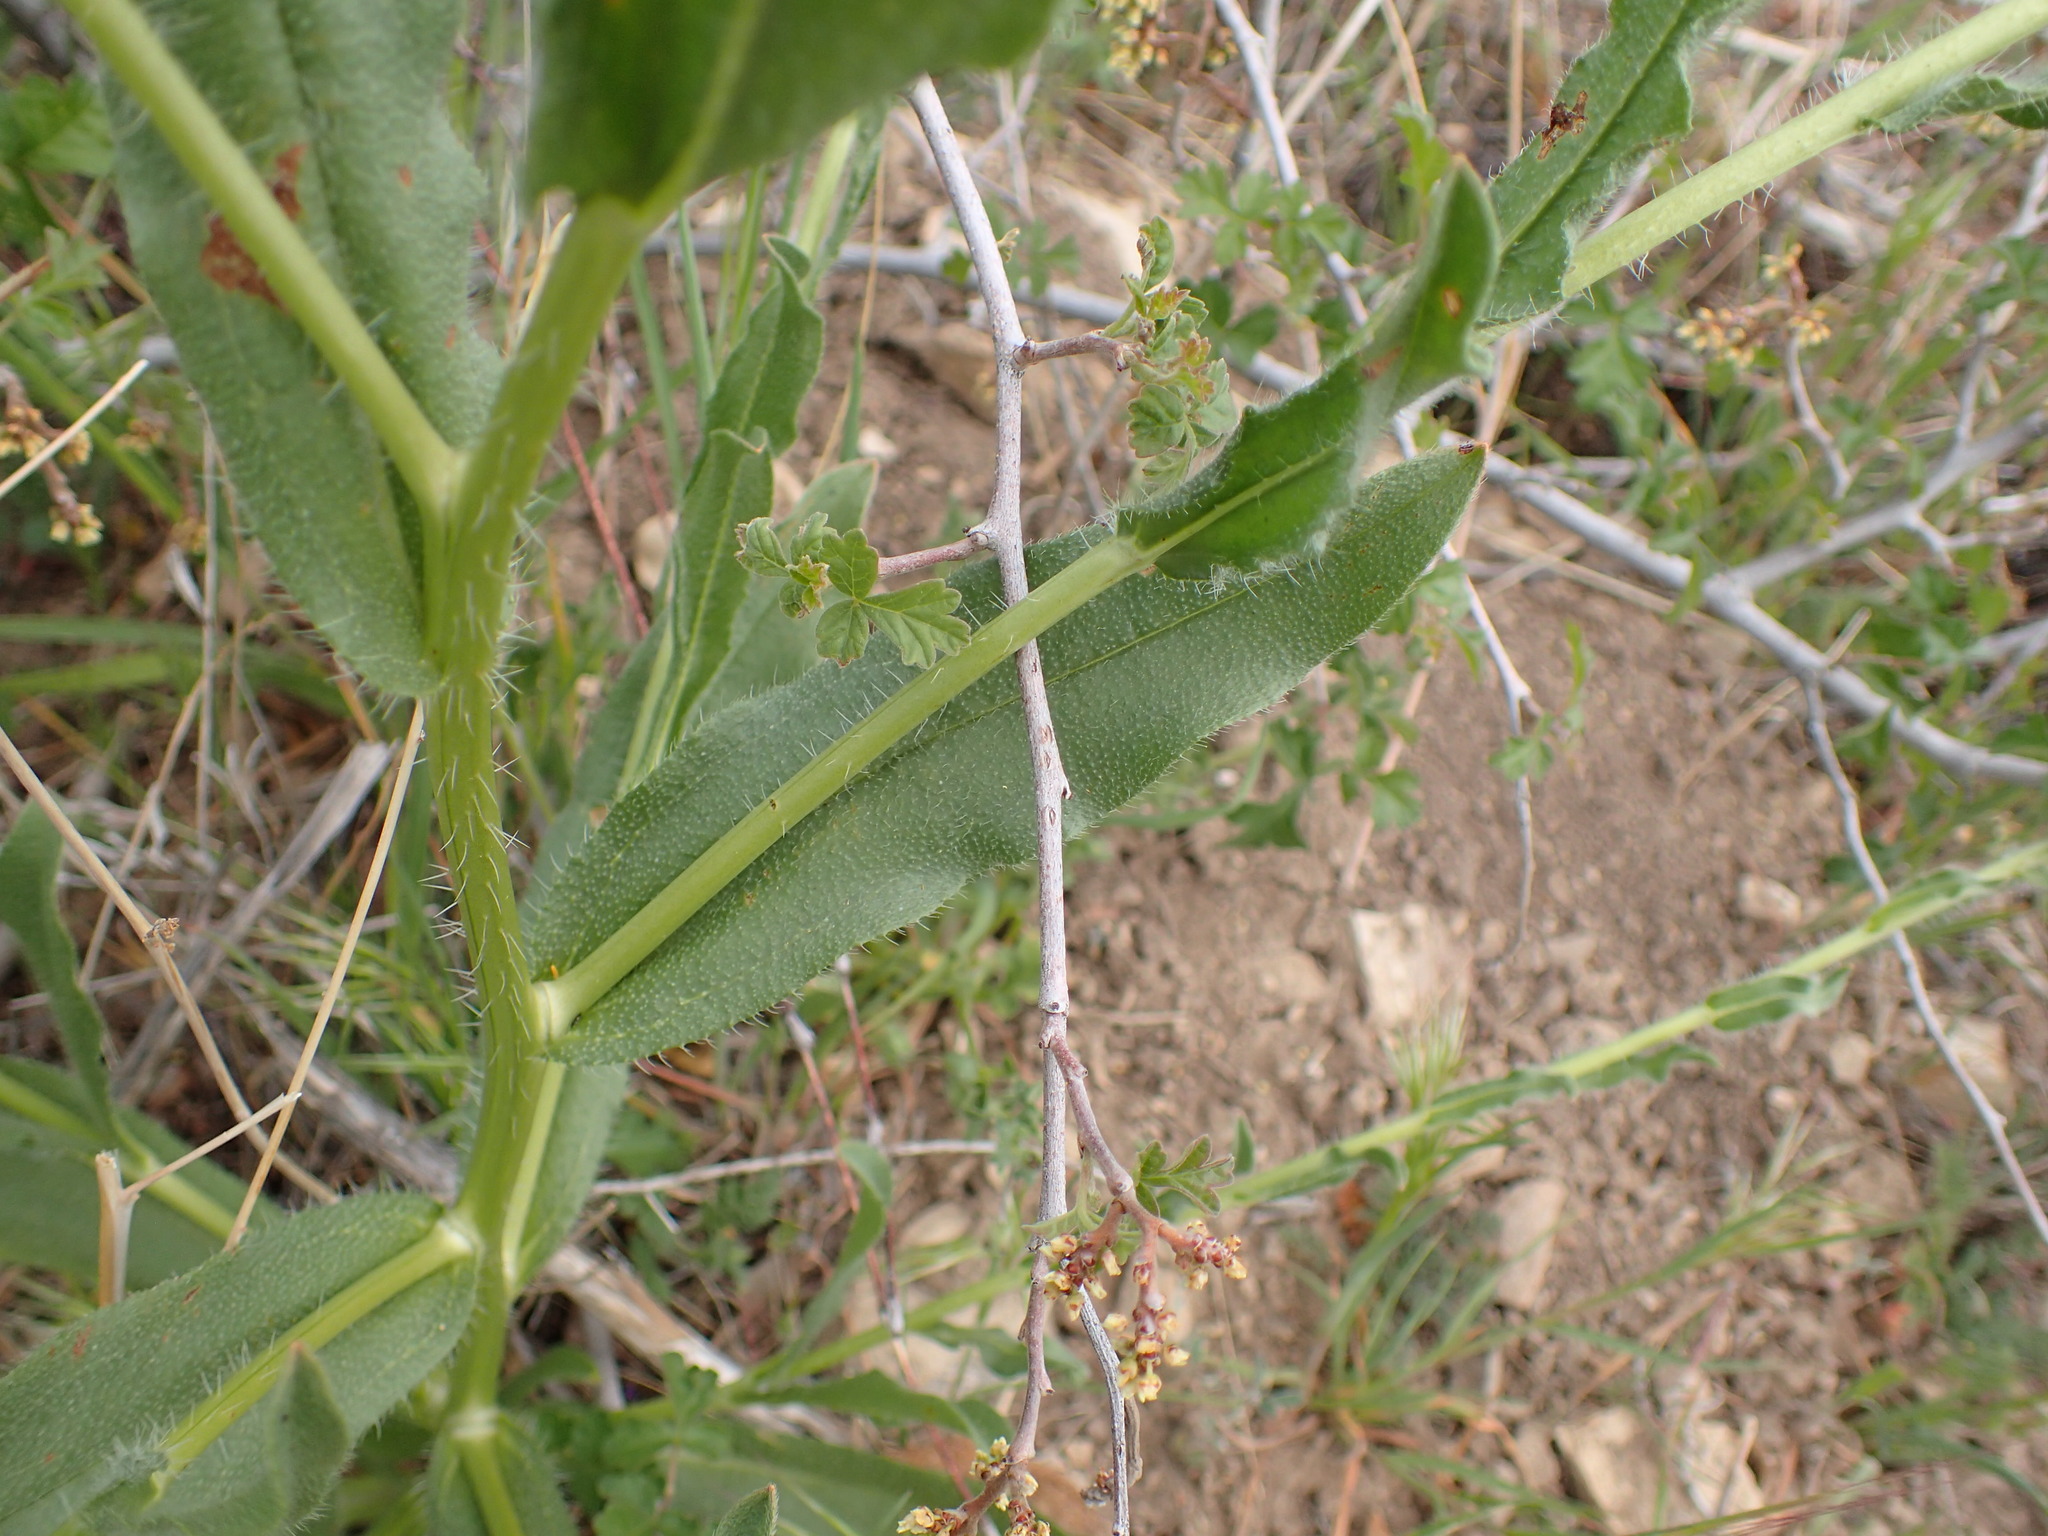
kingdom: Plantae
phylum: Tracheophyta
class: Magnoliopsida
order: Boraginales
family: Boraginaceae
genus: Amsinckia
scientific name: Amsinckia douglasiana
